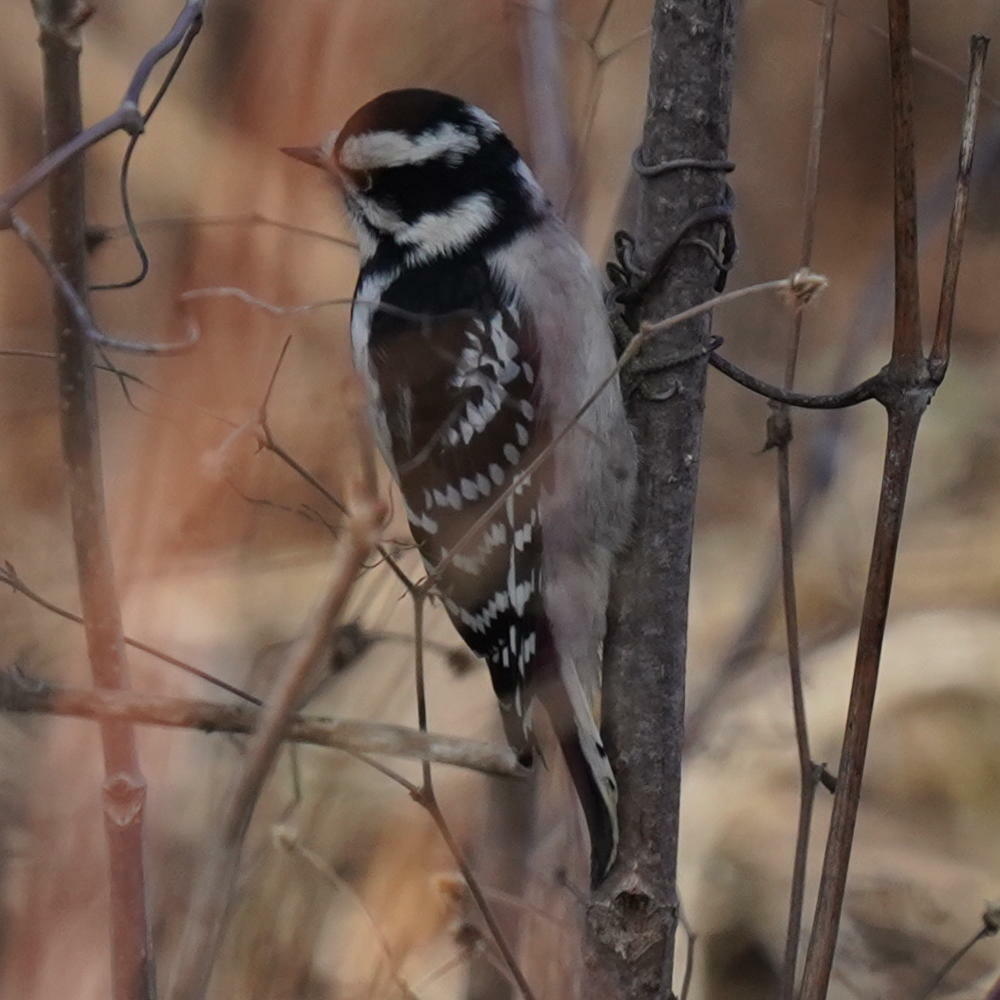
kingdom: Animalia
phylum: Chordata
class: Aves
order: Piciformes
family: Picidae
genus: Dryobates
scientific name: Dryobates pubescens
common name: Downy woodpecker
